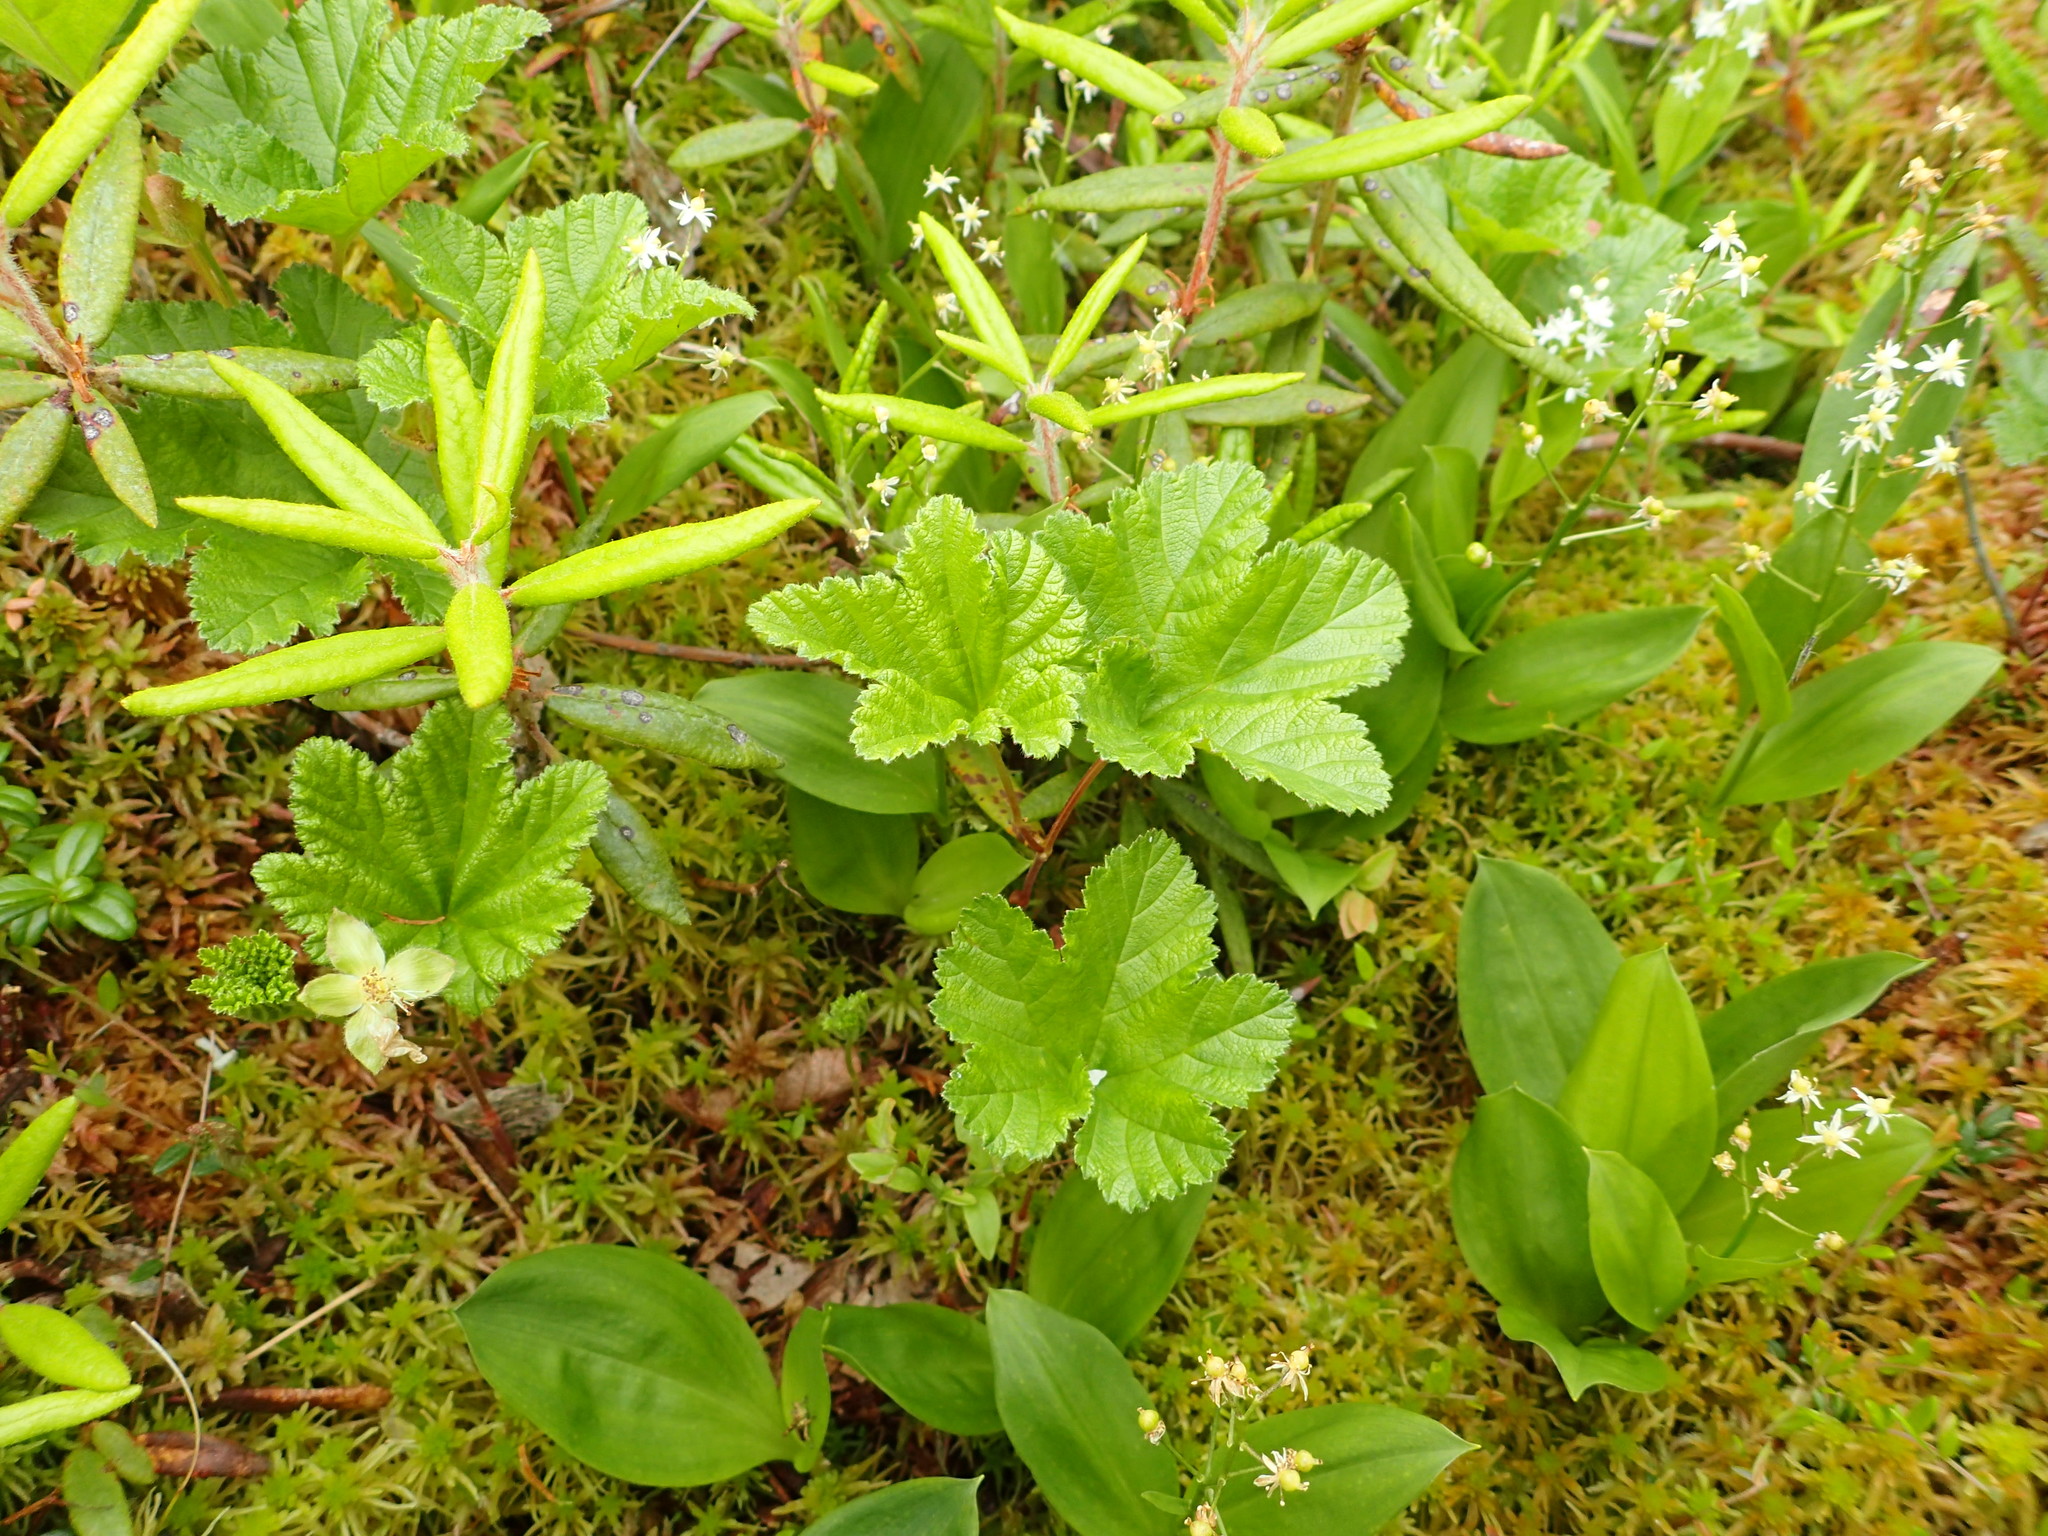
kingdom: Plantae
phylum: Tracheophyta
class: Magnoliopsida
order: Rosales
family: Rosaceae
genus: Rubus
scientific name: Rubus chamaemorus
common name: Cloudberry
